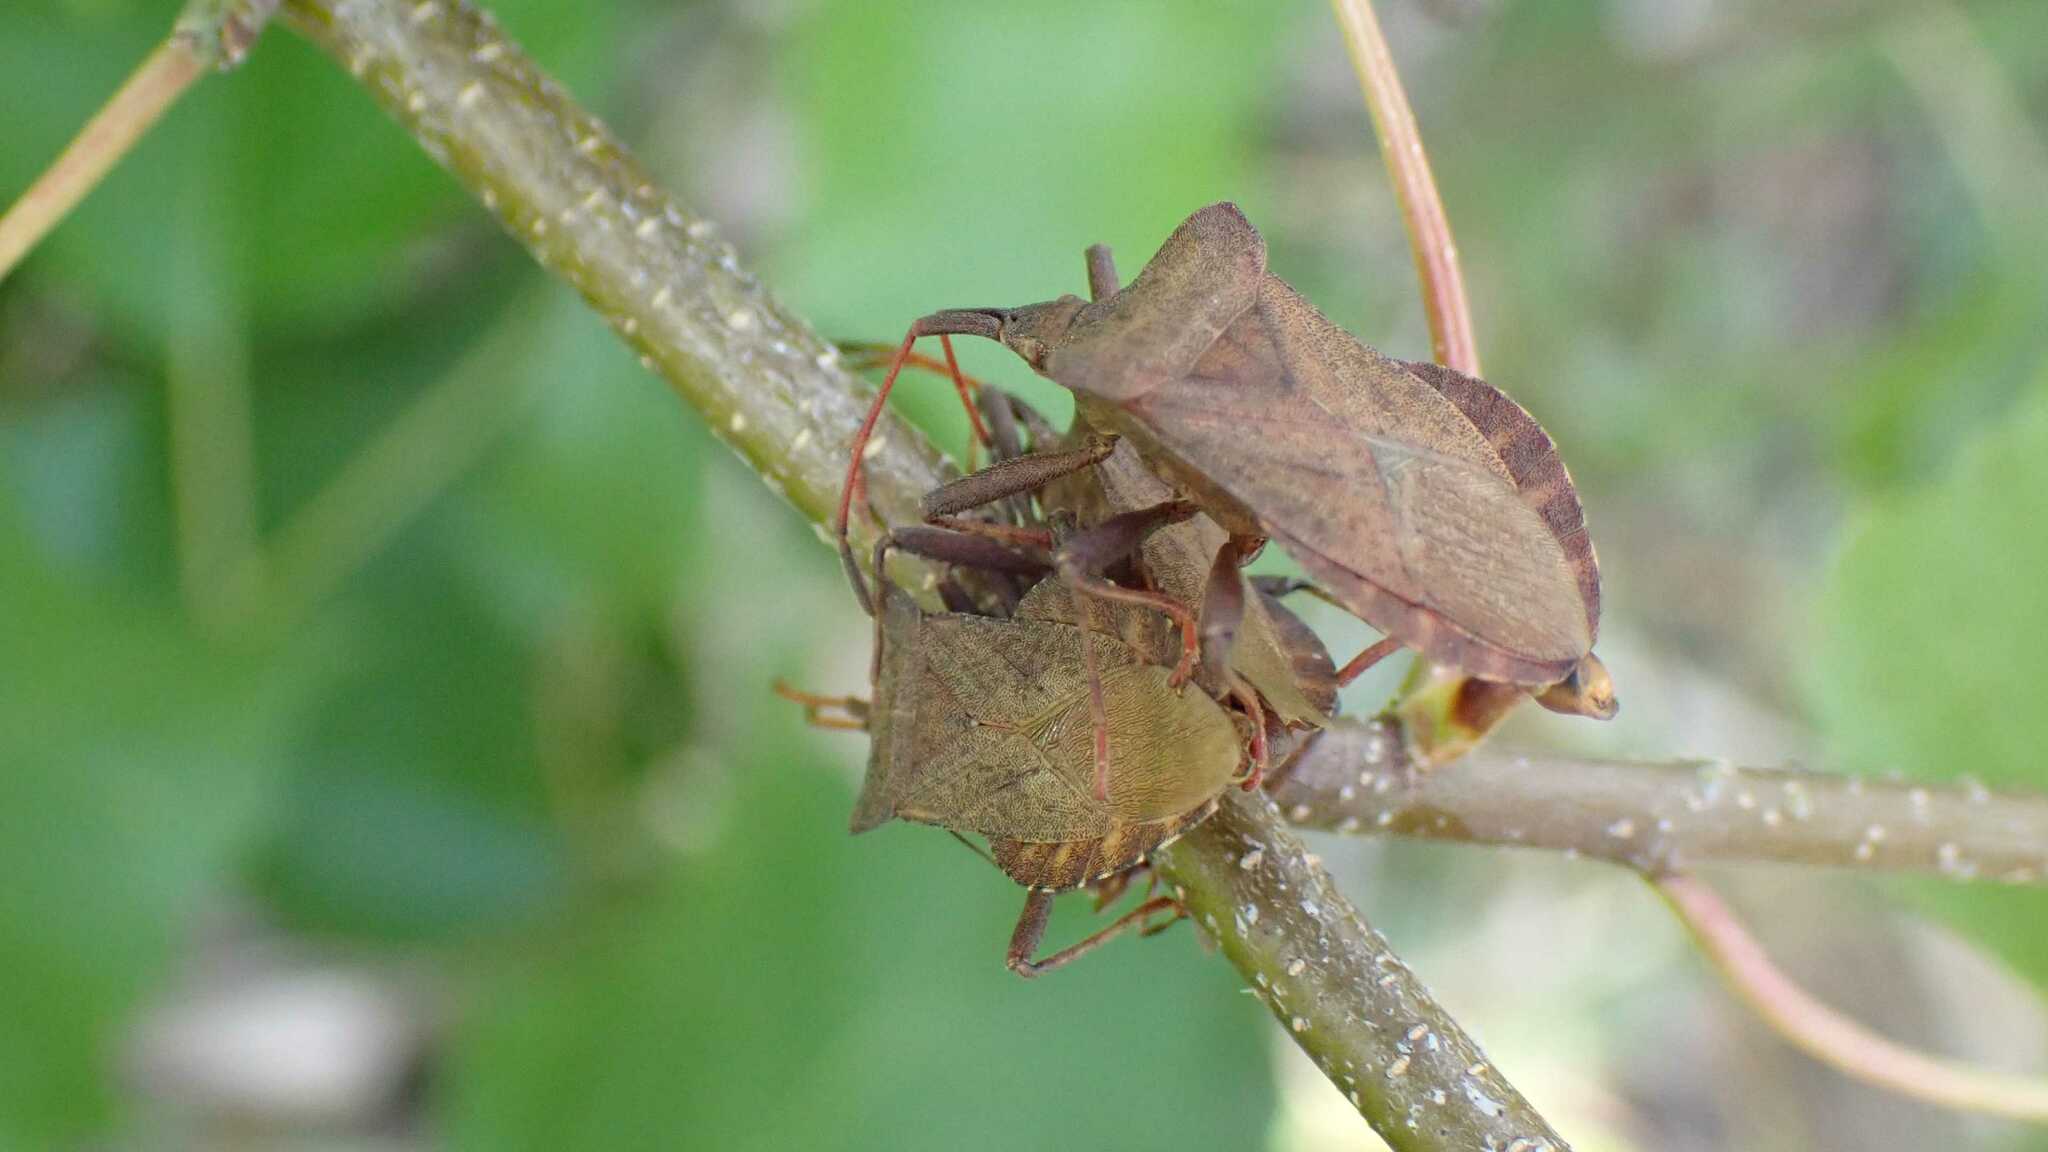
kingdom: Animalia
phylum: Arthropoda
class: Insecta
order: Hemiptera
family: Coreidae
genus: Coreus
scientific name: Coreus marginatus
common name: Dock bug
